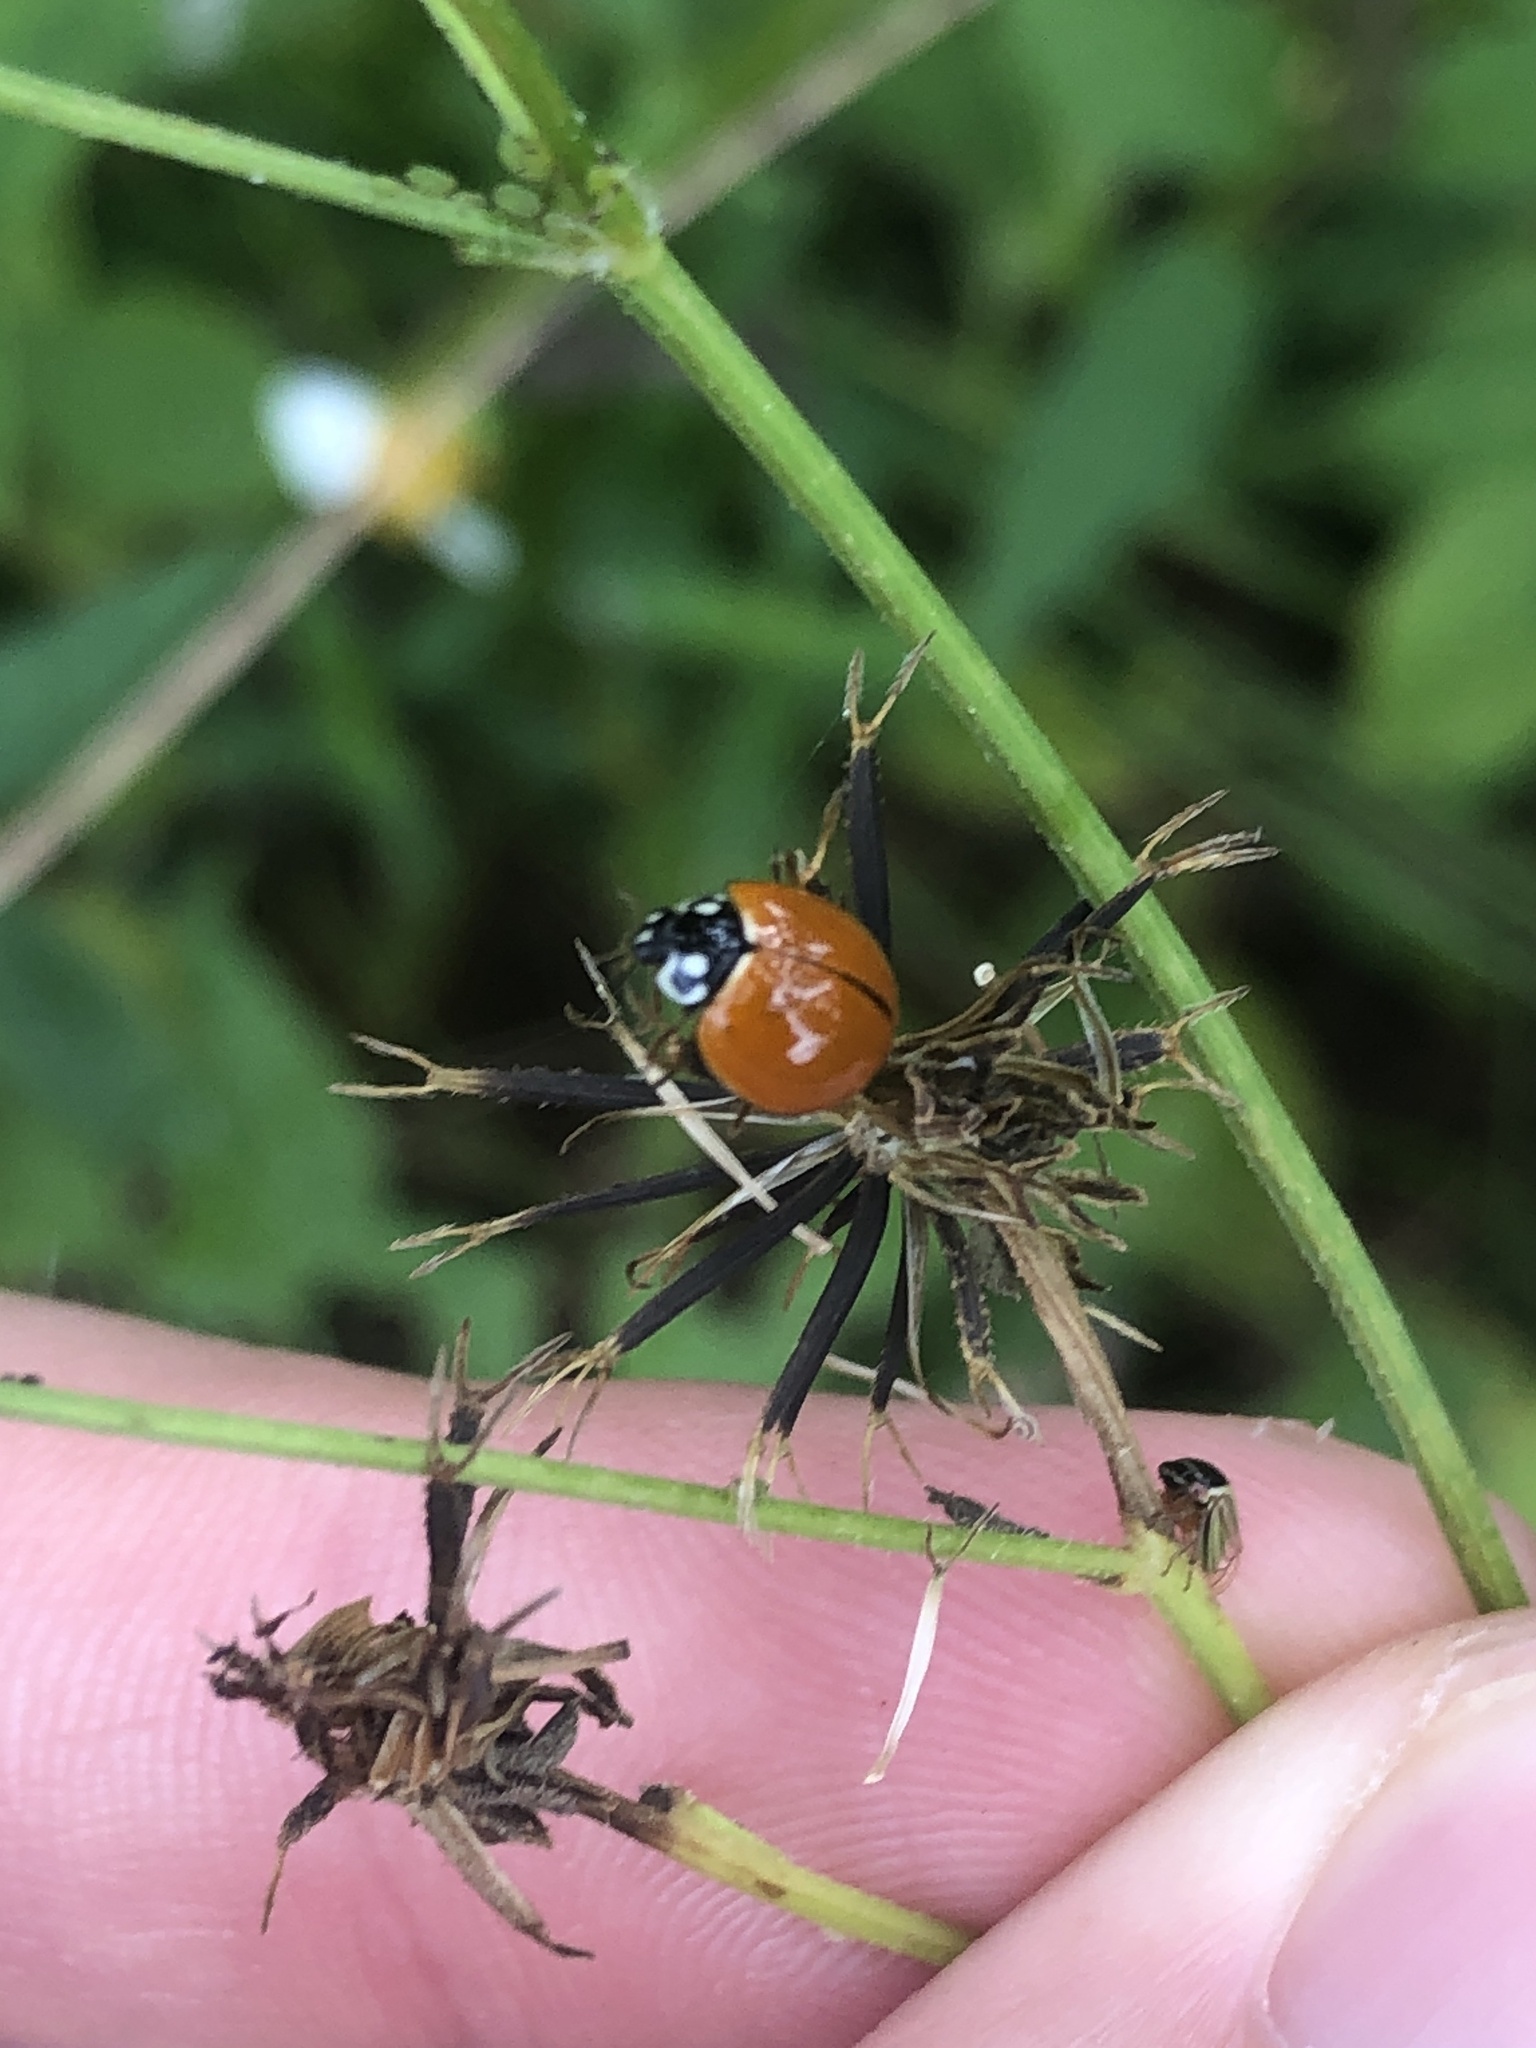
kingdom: Animalia
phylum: Arthropoda
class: Insecta
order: Coleoptera
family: Coccinellidae
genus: Cycloneda
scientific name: Cycloneda sanguinea
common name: Ladybird beetle
